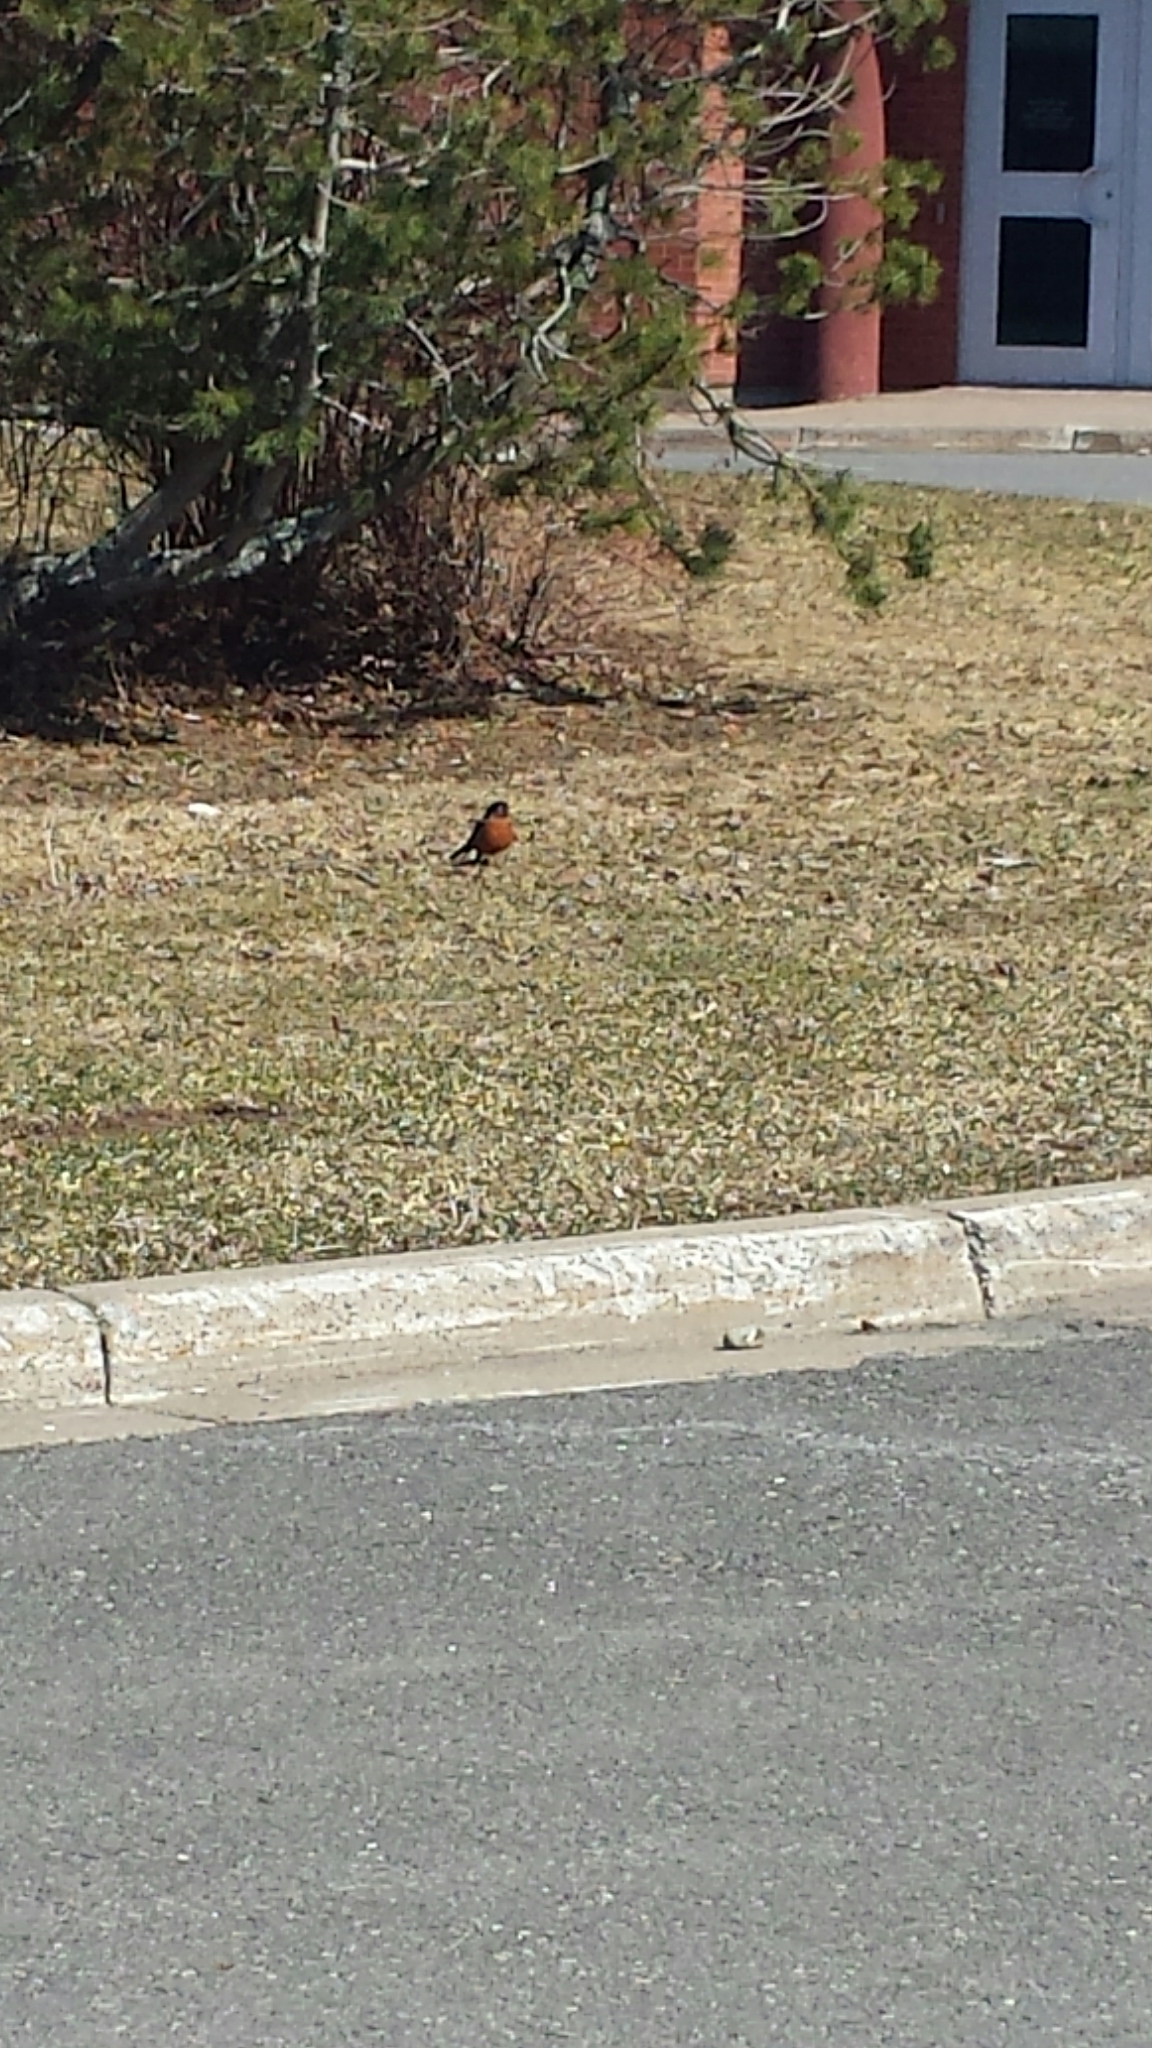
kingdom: Animalia
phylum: Chordata
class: Aves
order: Passeriformes
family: Turdidae
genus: Turdus
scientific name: Turdus migratorius
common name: American robin
